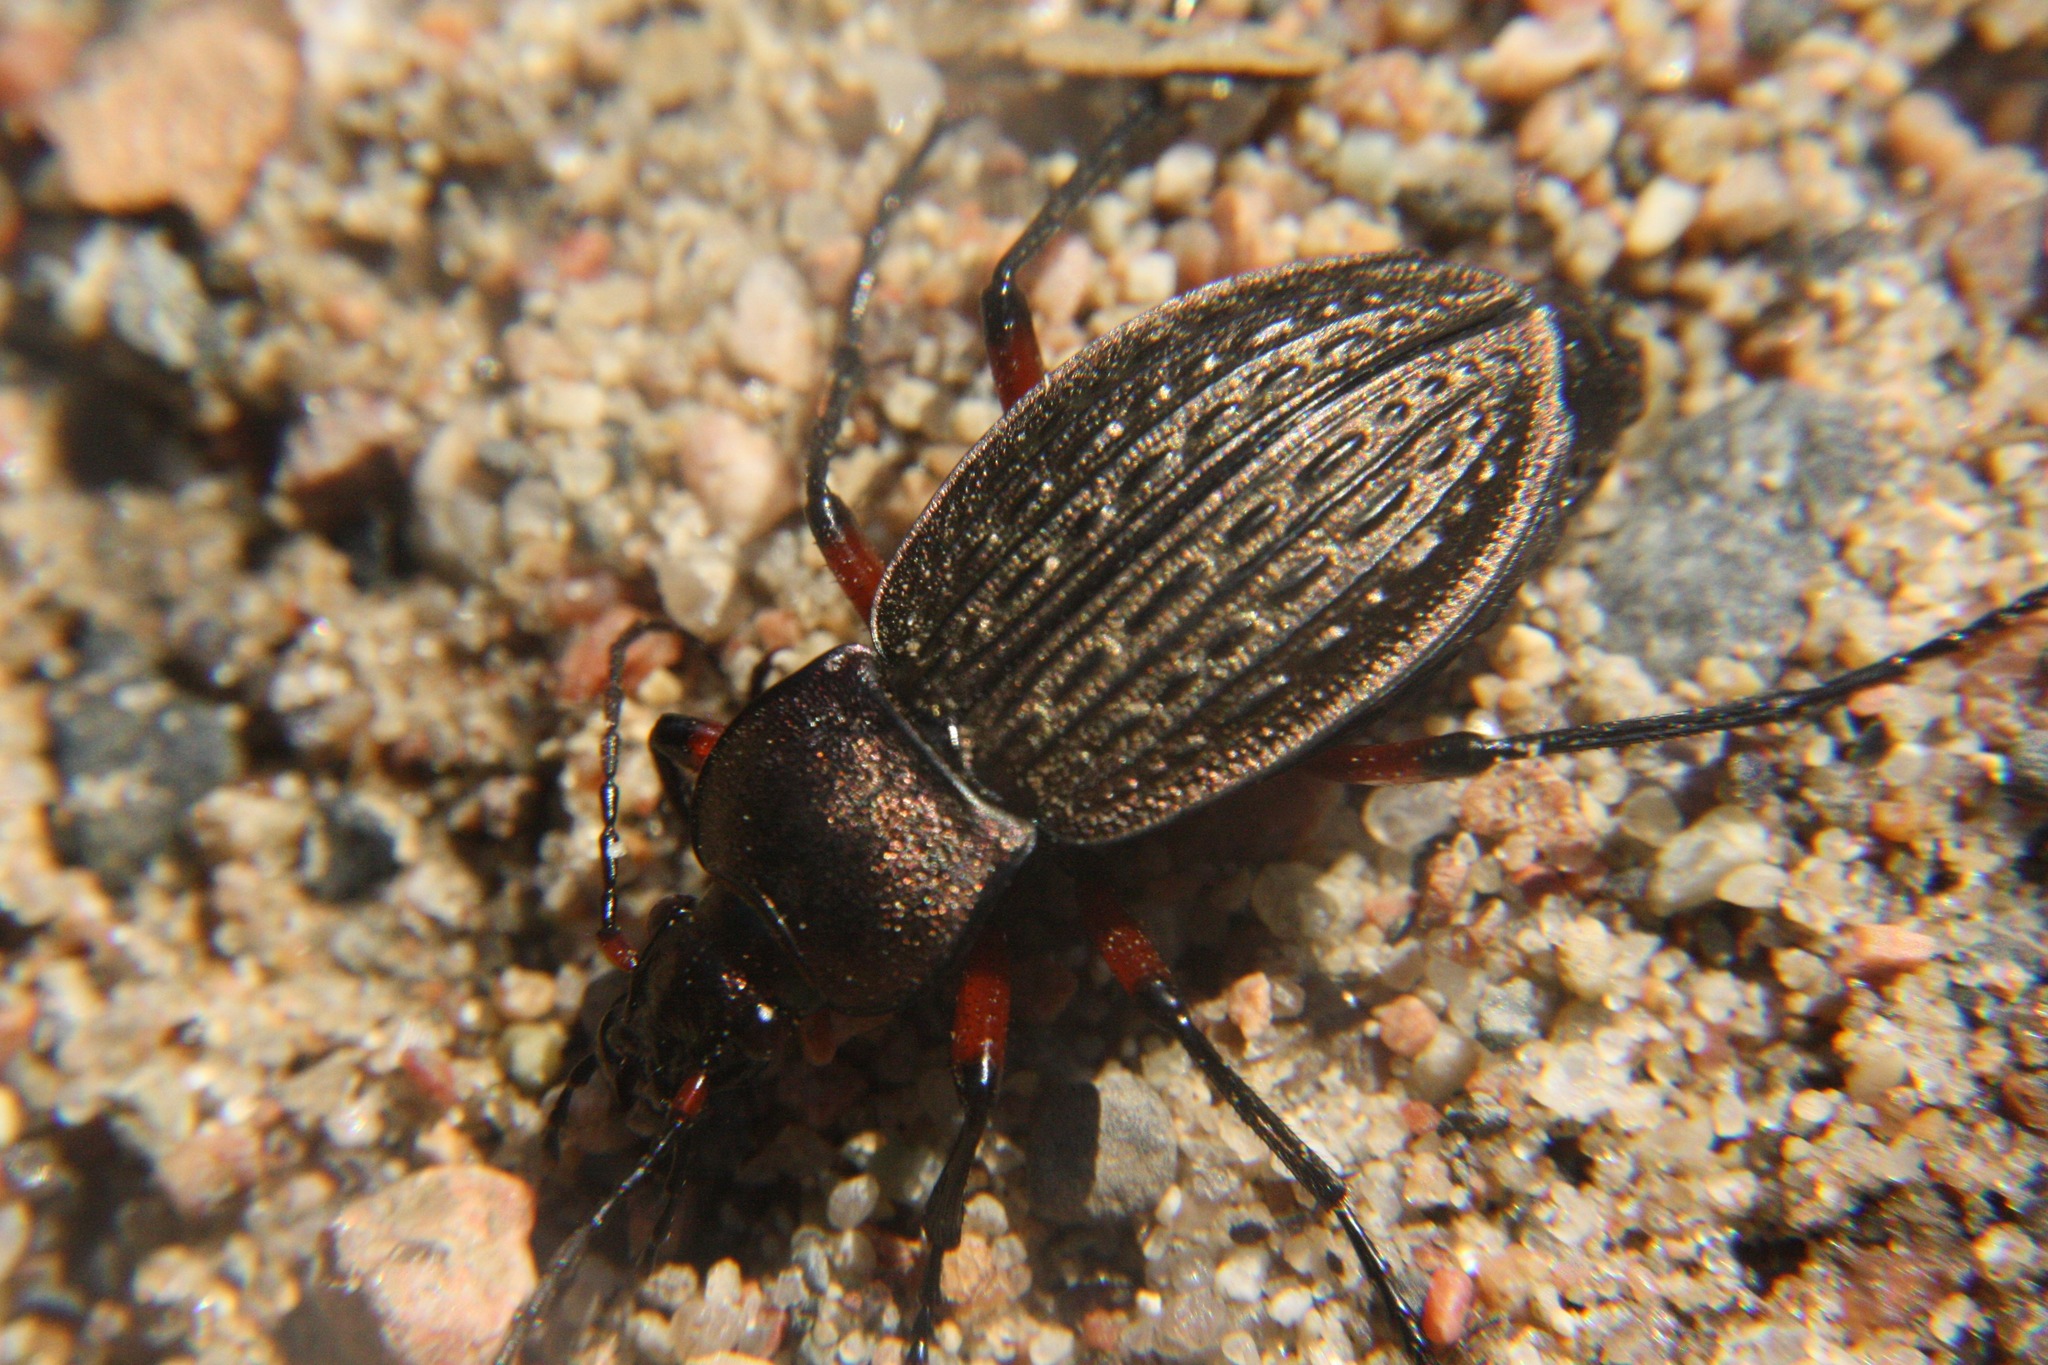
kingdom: Animalia
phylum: Arthropoda
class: Insecta
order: Coleoptera
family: Carabidae
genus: Carabus
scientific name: Carabus cancellatus
